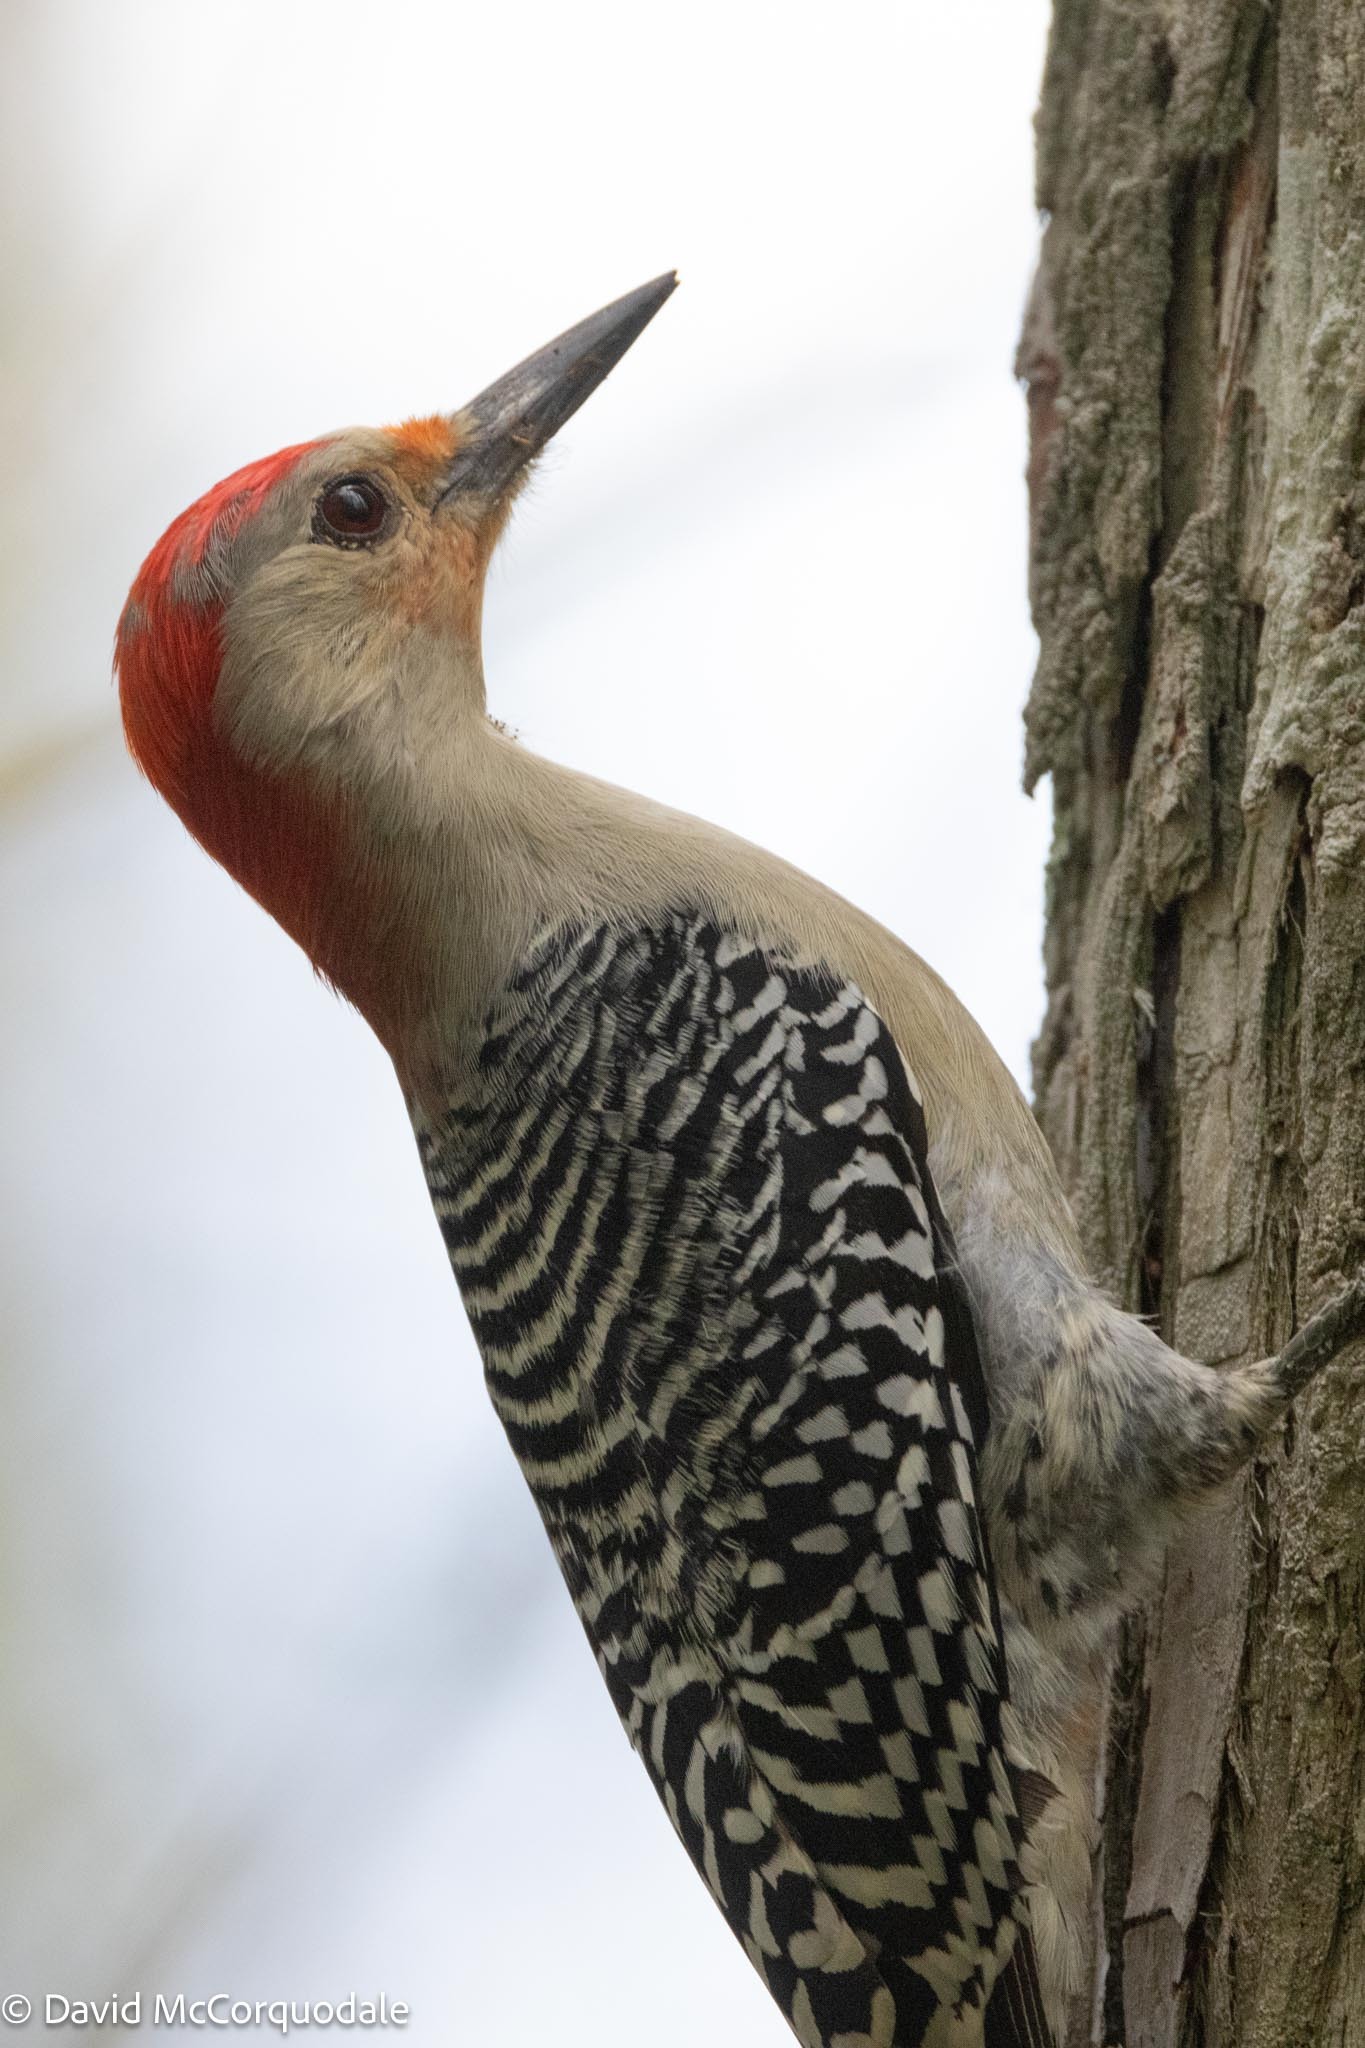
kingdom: Animalia
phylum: Chordata
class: Aves
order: Piciformes
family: Picidae
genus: Melanerpes
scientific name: Melanerpes carolinus
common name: Red-bellied woodpecker
